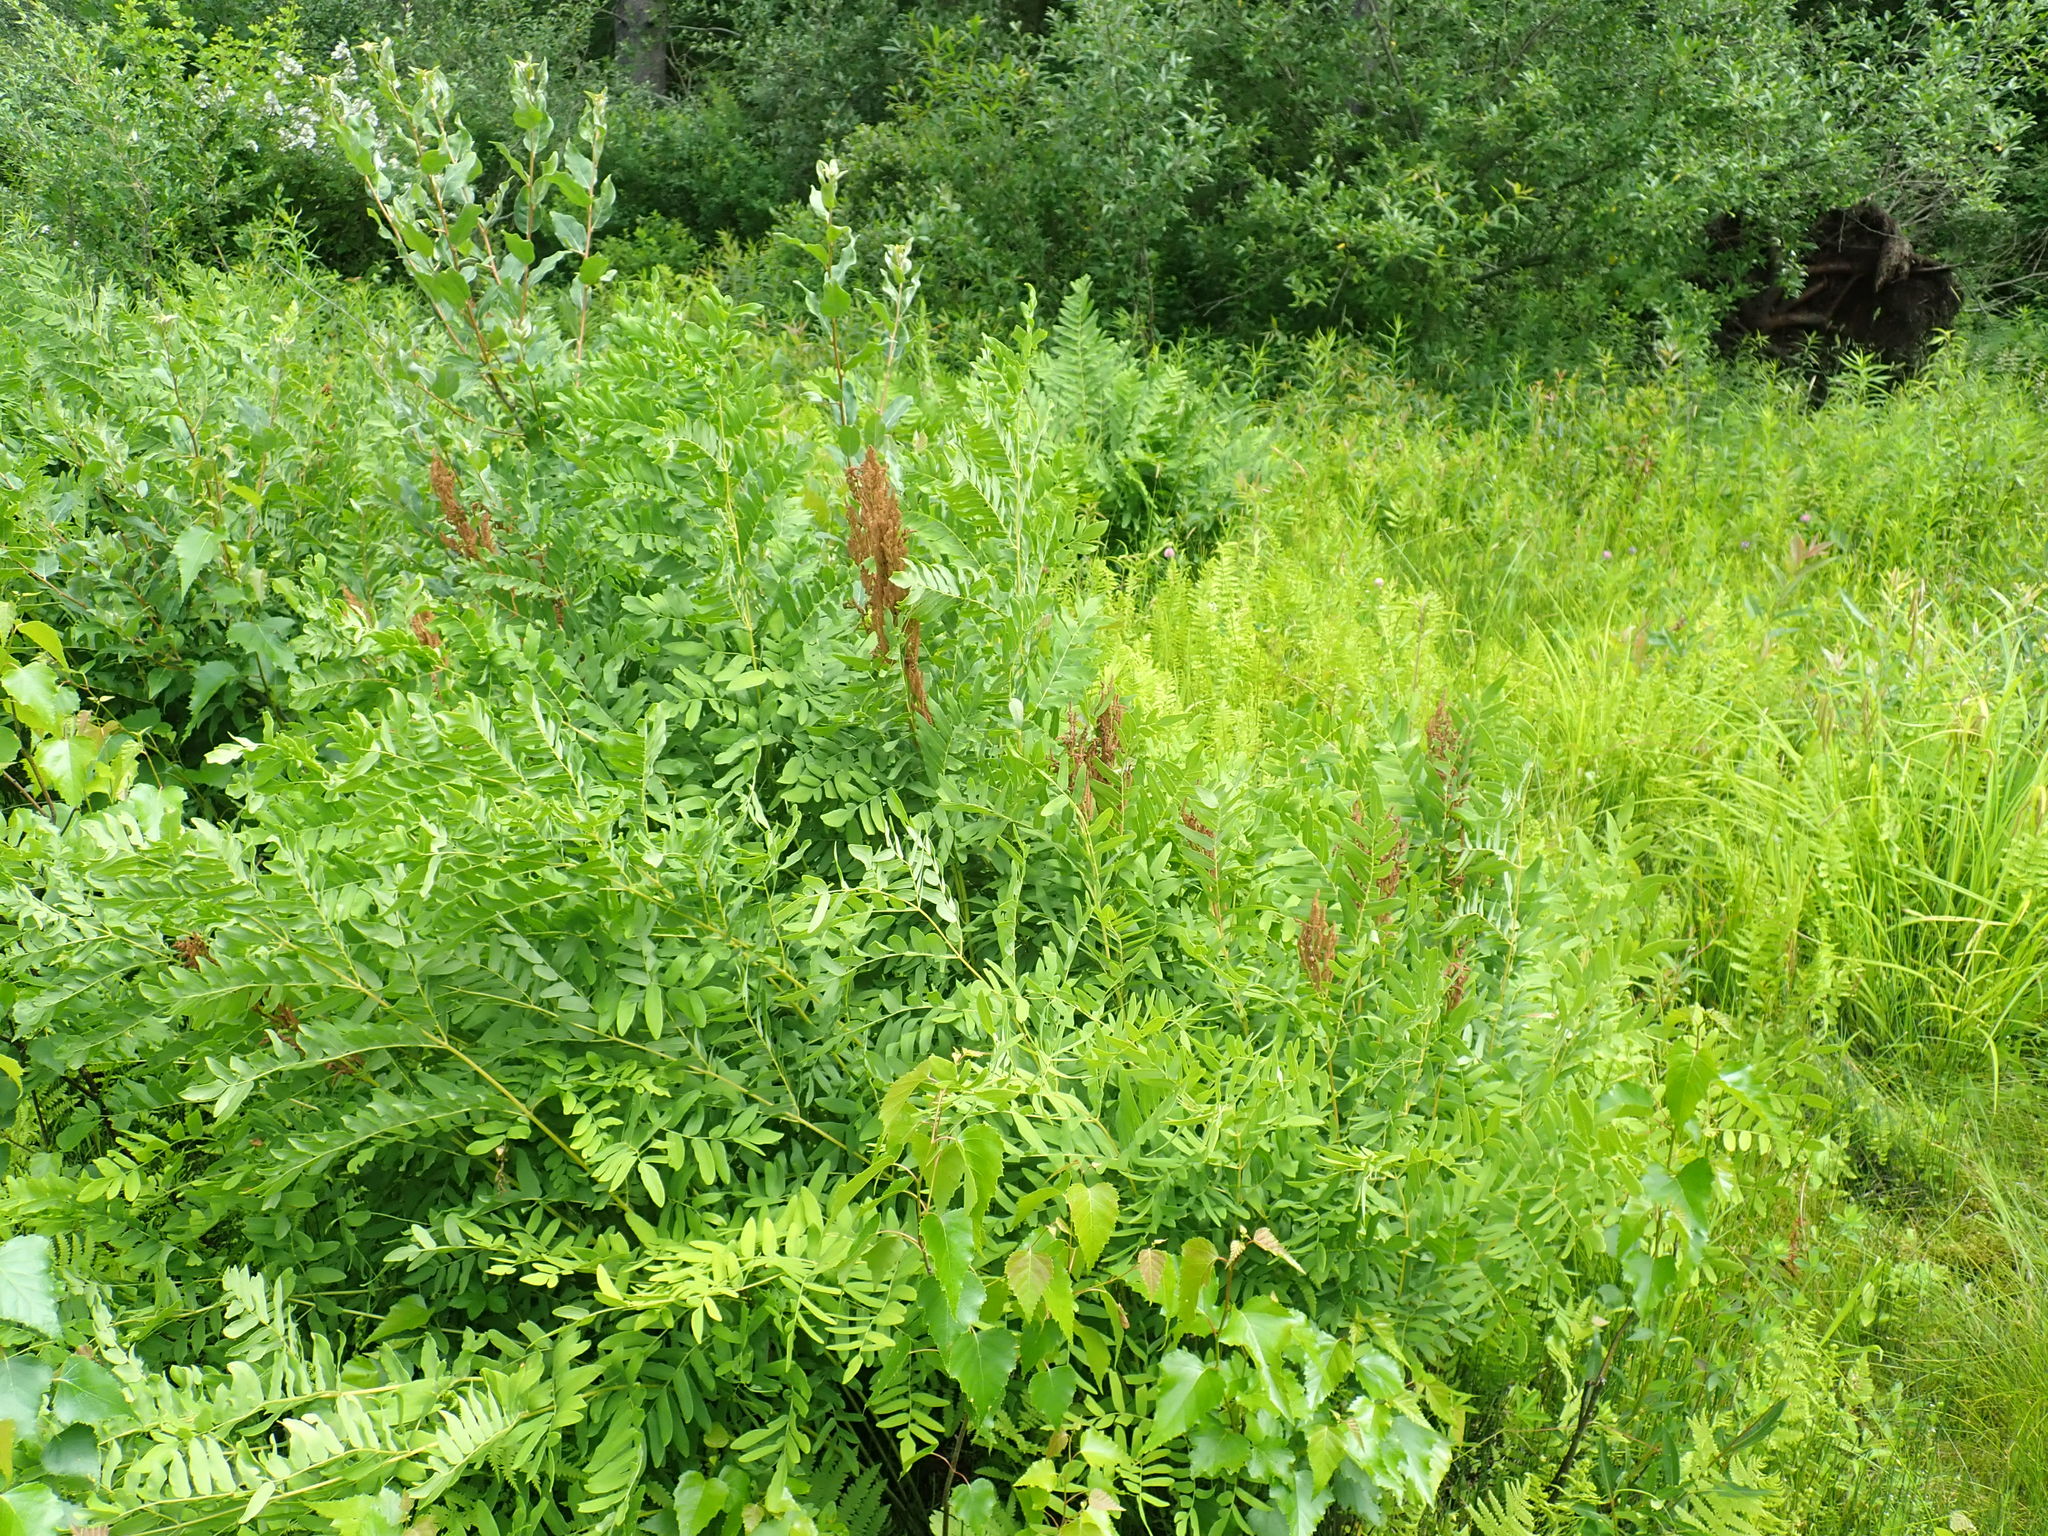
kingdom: Plantae
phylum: Tracheophyta
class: Polypodiopsida
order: Osmundales
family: Osmundaceae
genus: Osmunda
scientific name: Osmunda spectabilis
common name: American royal fern
